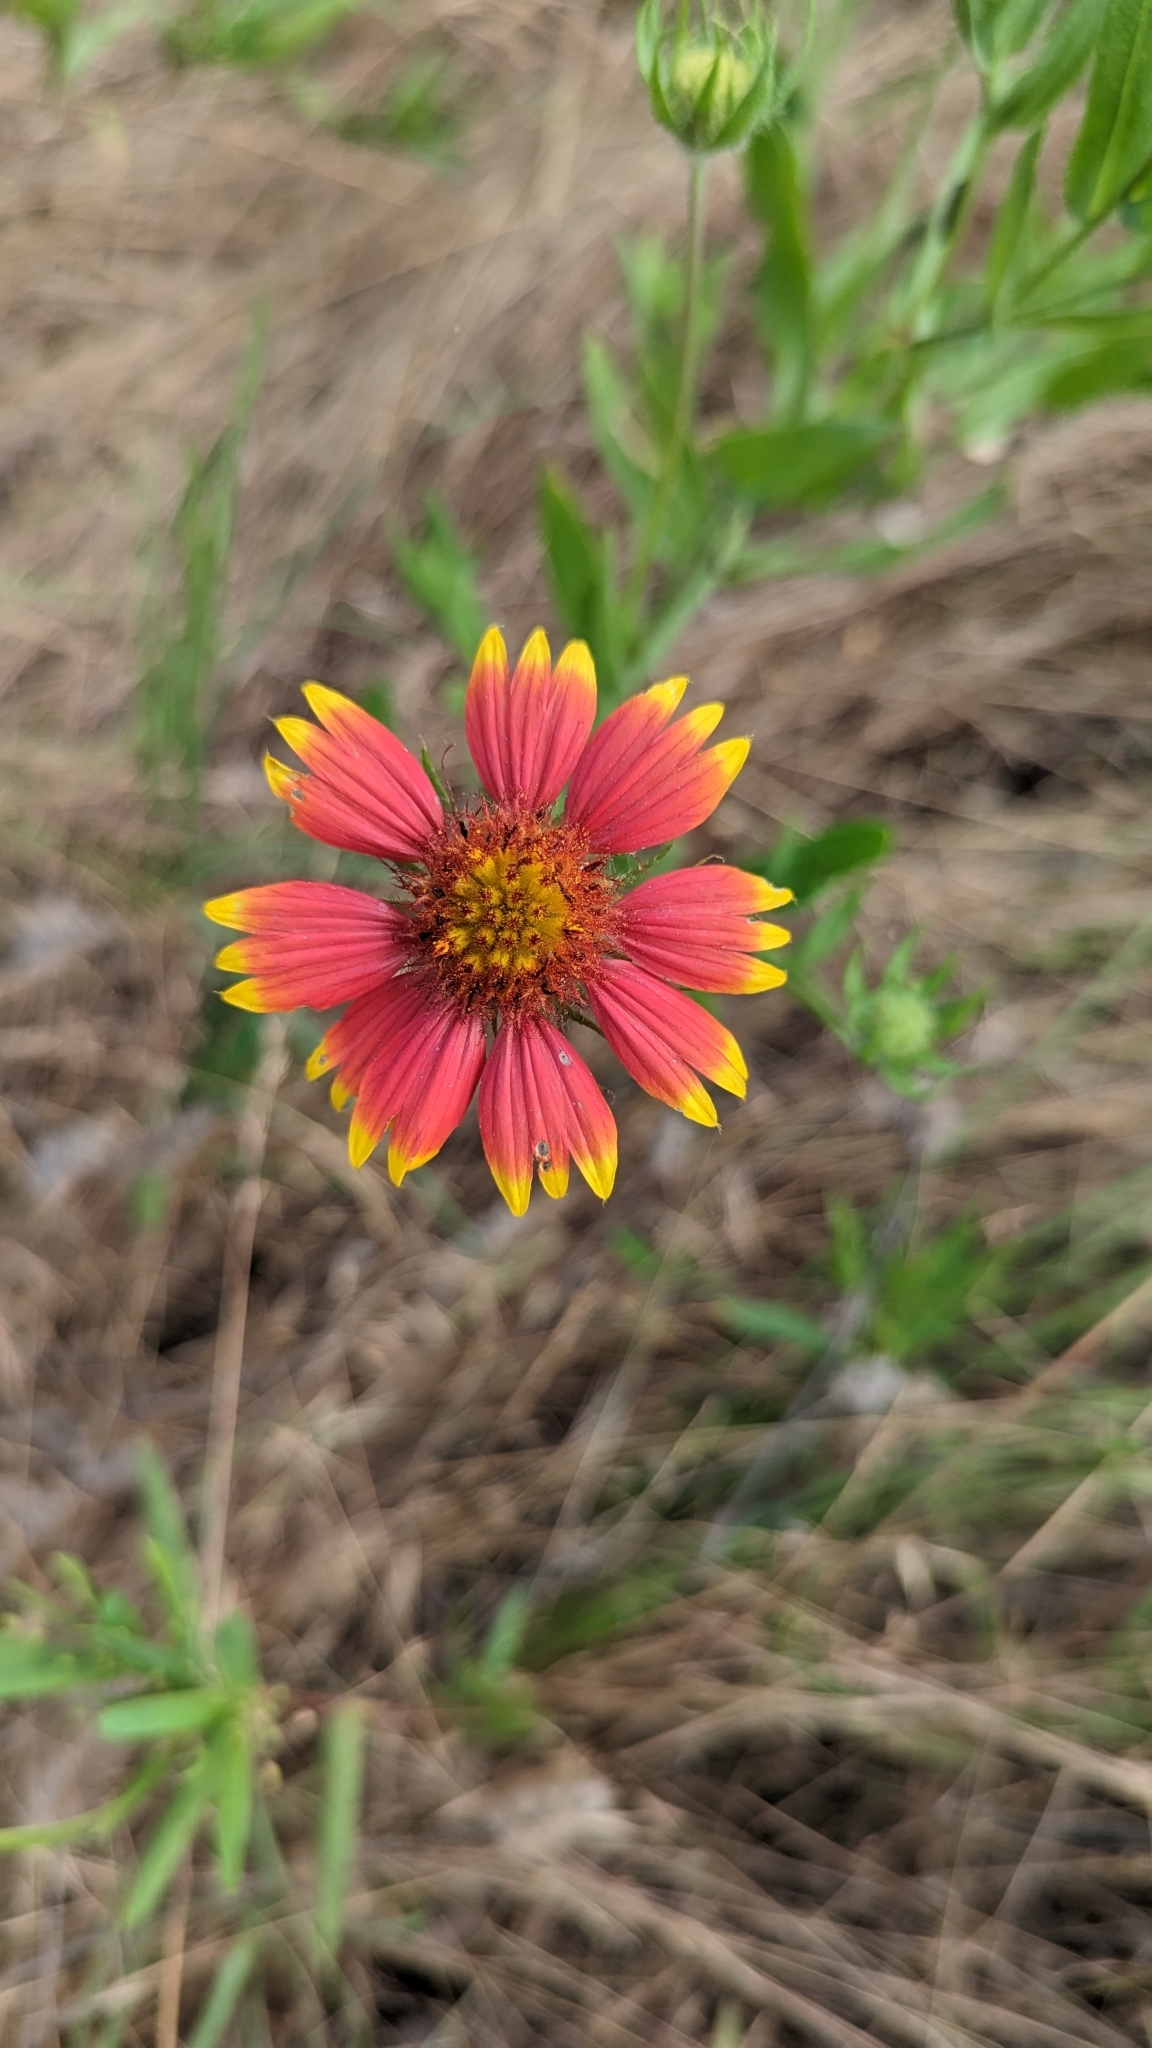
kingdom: Plantae
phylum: Tracheophyta
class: Magnoliopsida
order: Asterales
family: Asteraceae
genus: Gaillardia
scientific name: Gaillardia pulchella
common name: Firewheel
